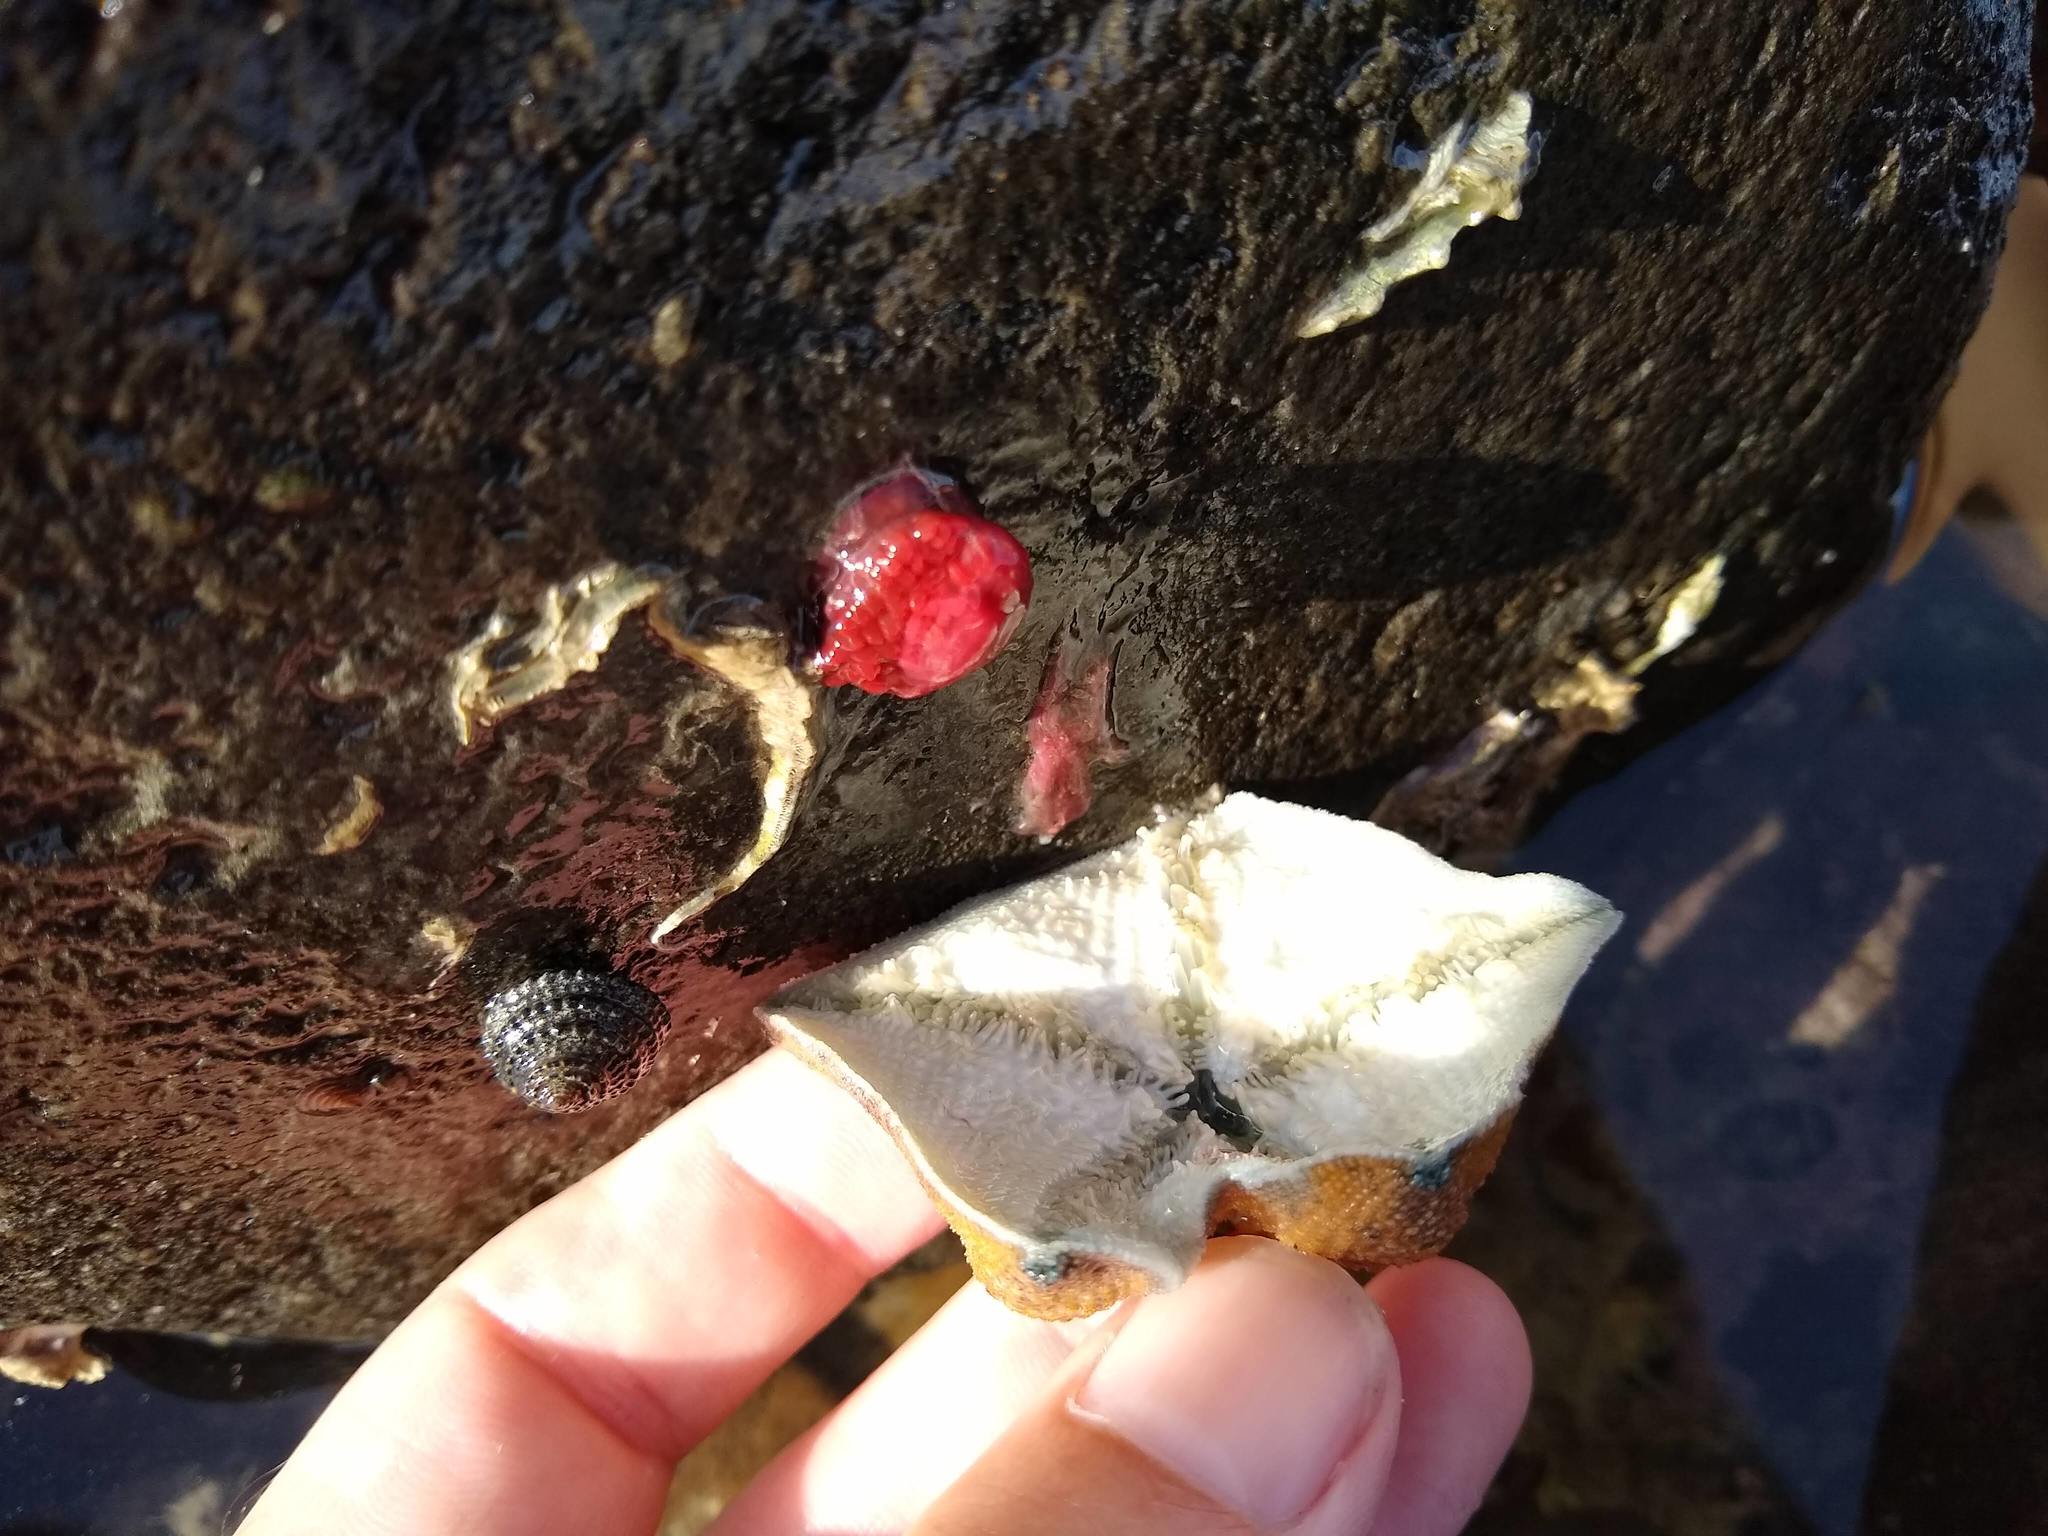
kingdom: Animalia
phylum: Echinodermata
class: Asteroidea
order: Valvatida
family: Asterinidae
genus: Patiriella
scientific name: Patiriella regularis
